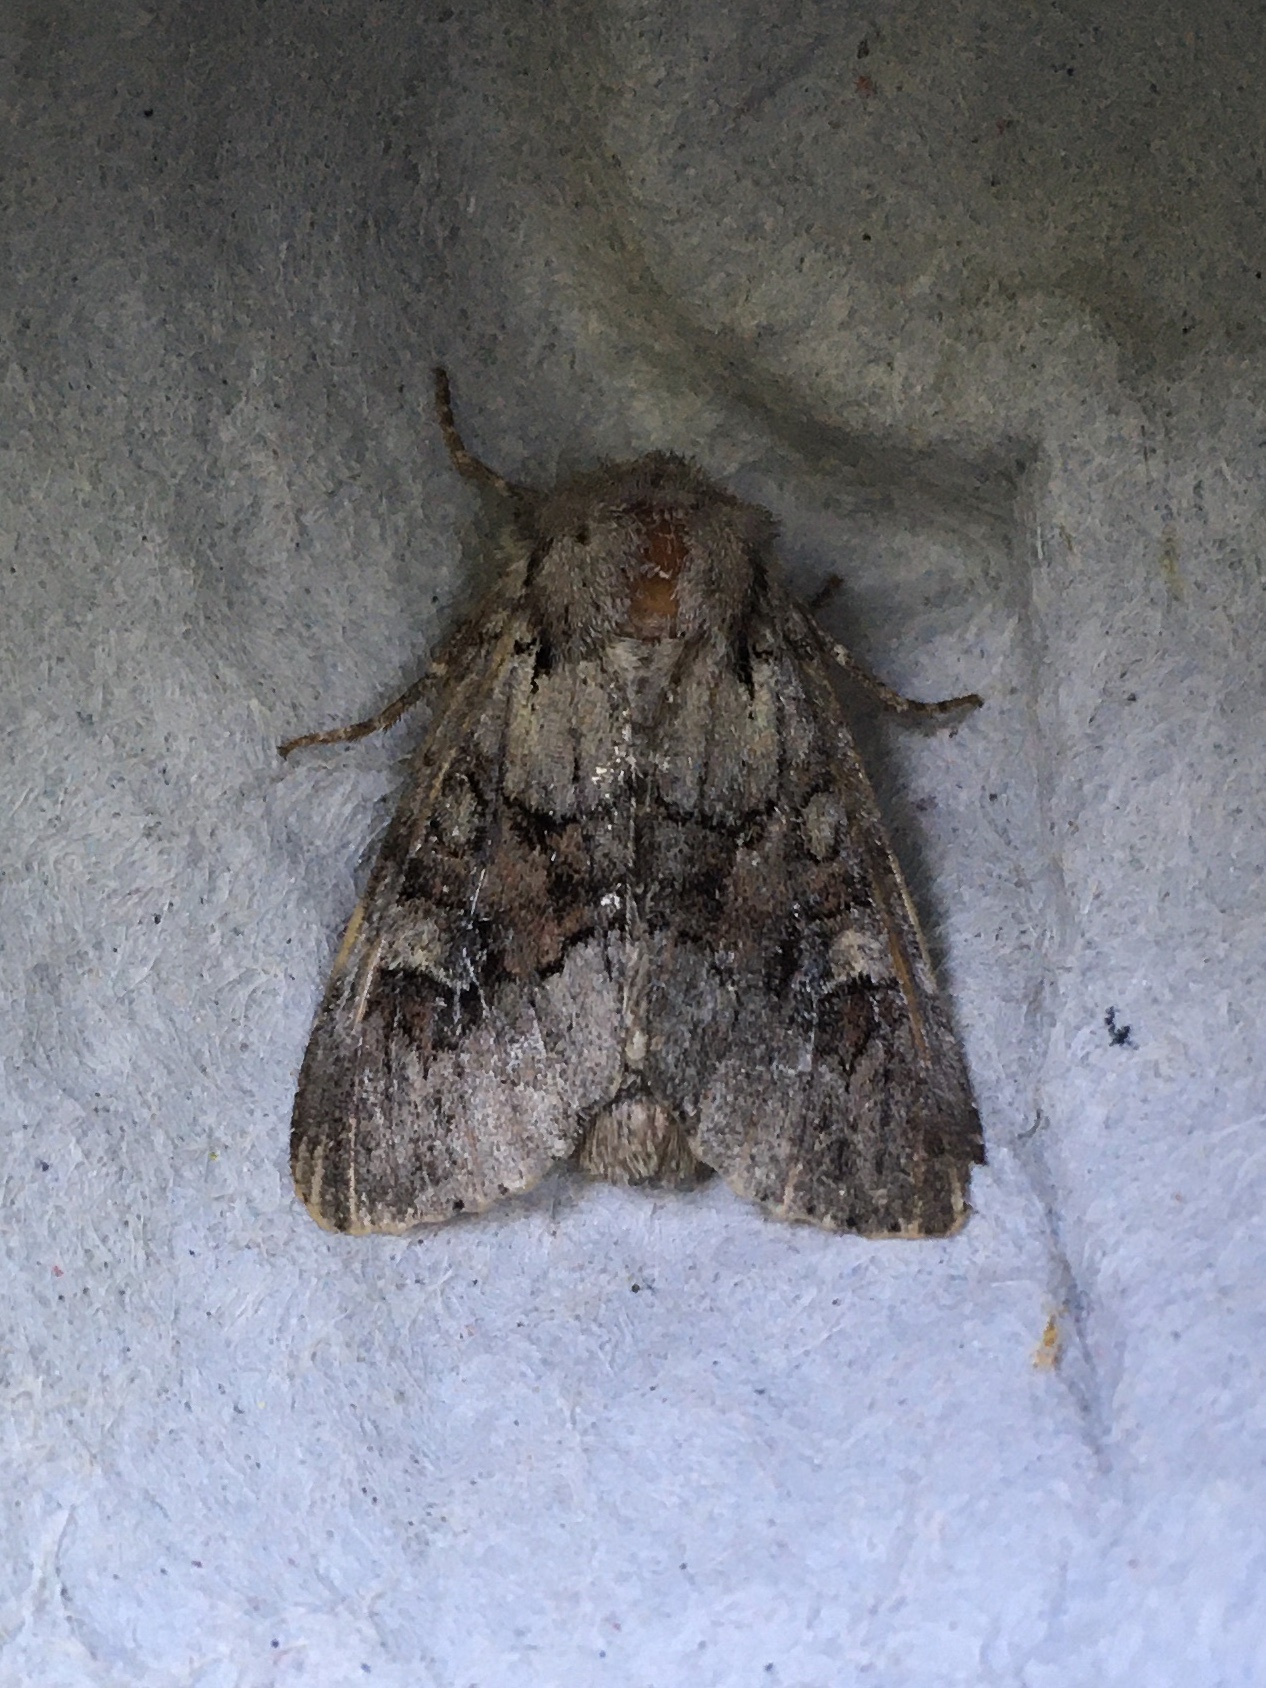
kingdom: Animalia
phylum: Arthropoda
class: Insecta
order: Lepidoptera
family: Noctuidae
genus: Apamea
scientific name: Apamea sordens
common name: Rustic shoulder-knot
